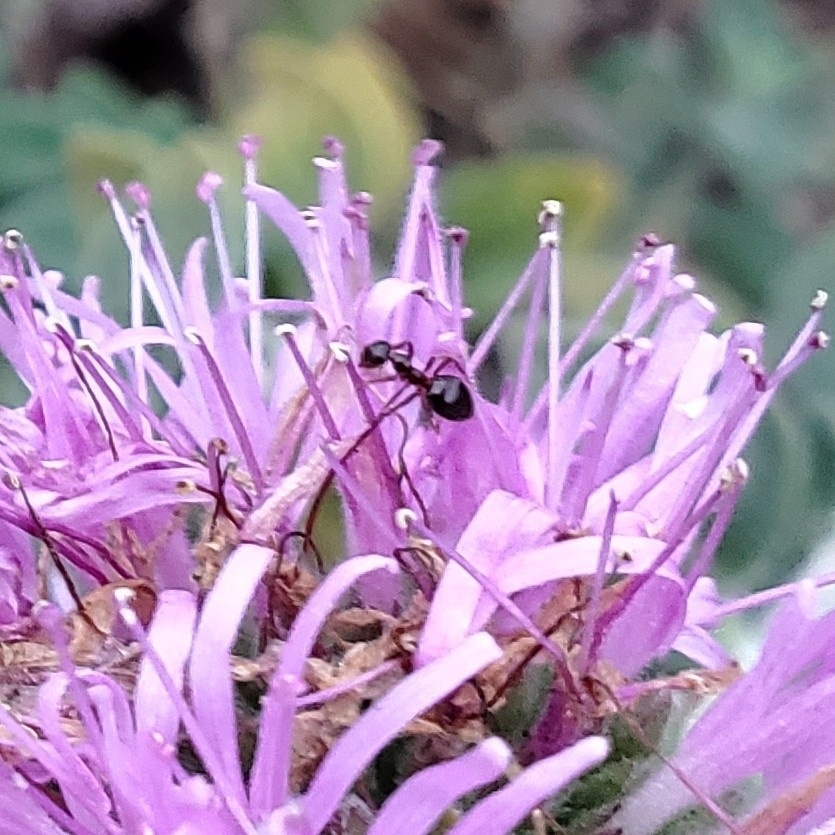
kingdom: Animalia
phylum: Arthropoda
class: Insecta
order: Hymenoptera
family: Formicidae
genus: Prenolepis
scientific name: Prenolepis imparis
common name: Small honey ant
